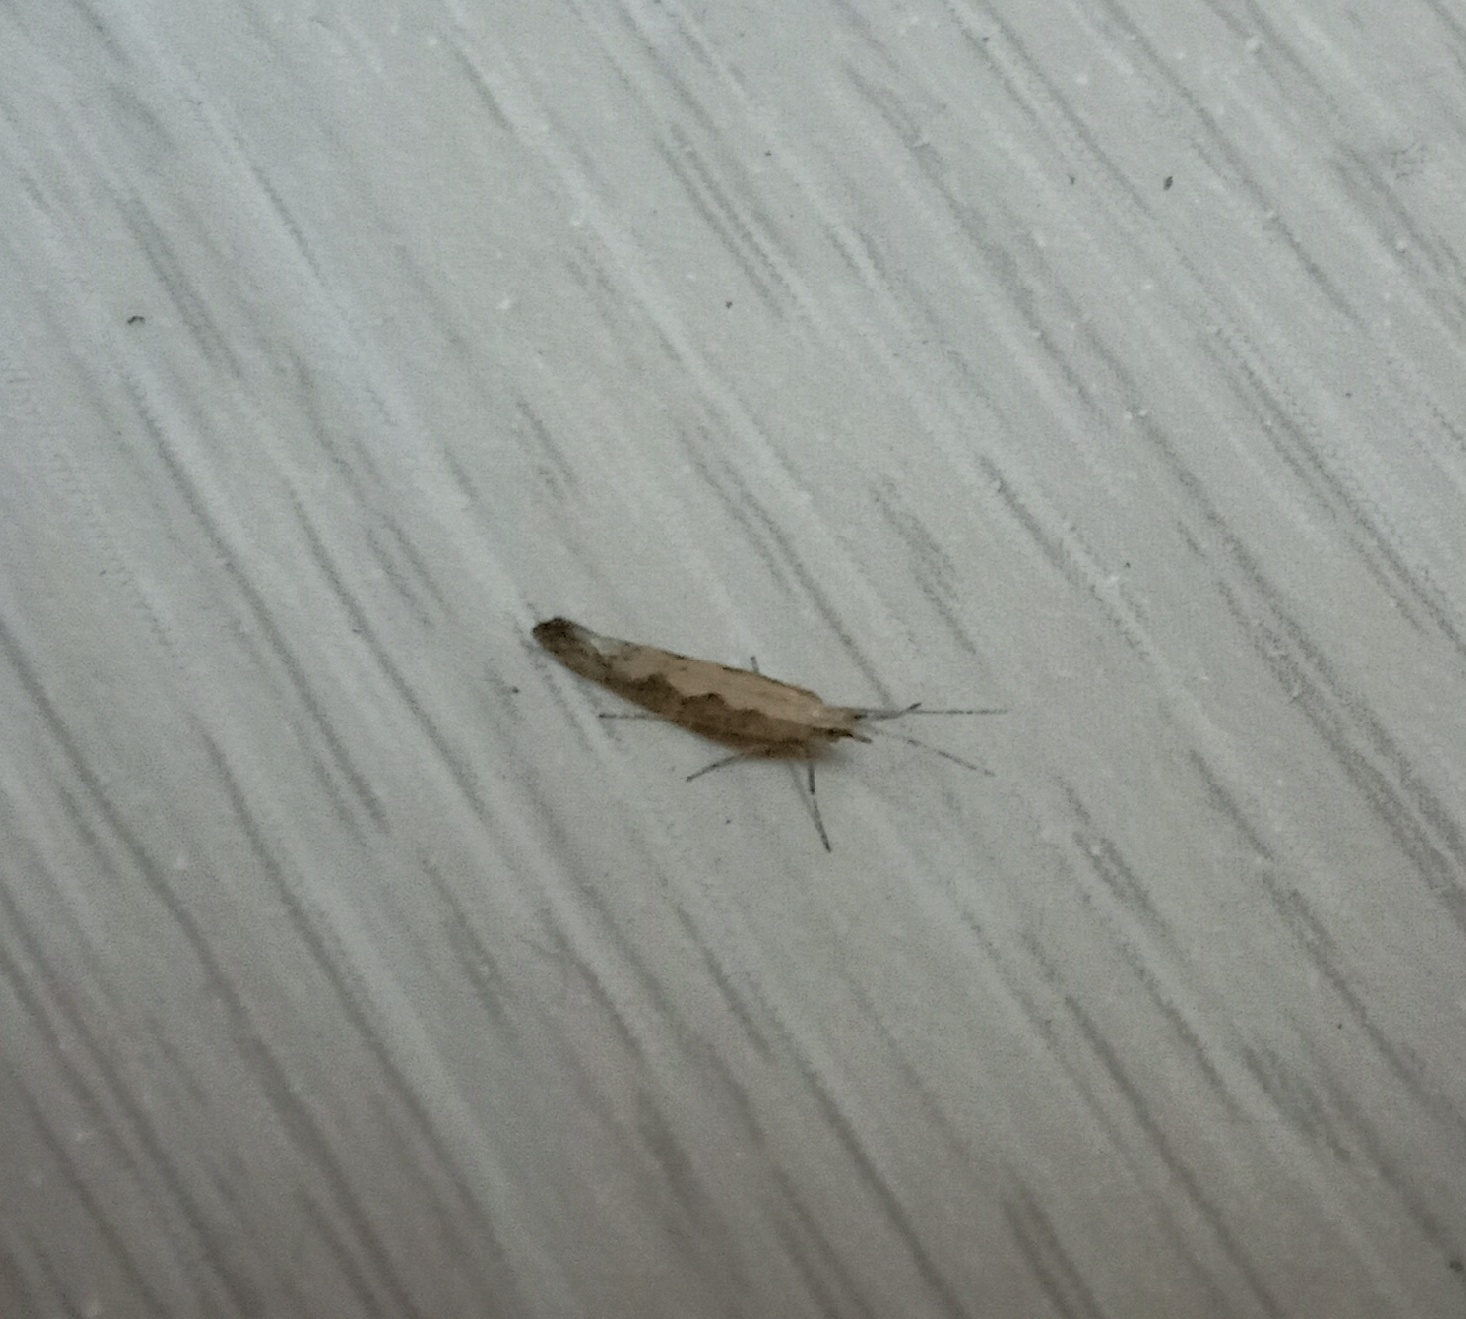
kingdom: Animalia
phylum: Arthropoda
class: Insecta
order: Lepidoptera
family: Plutellidae
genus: Plutella
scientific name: Plutella xylostella
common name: Diamond-back moth
